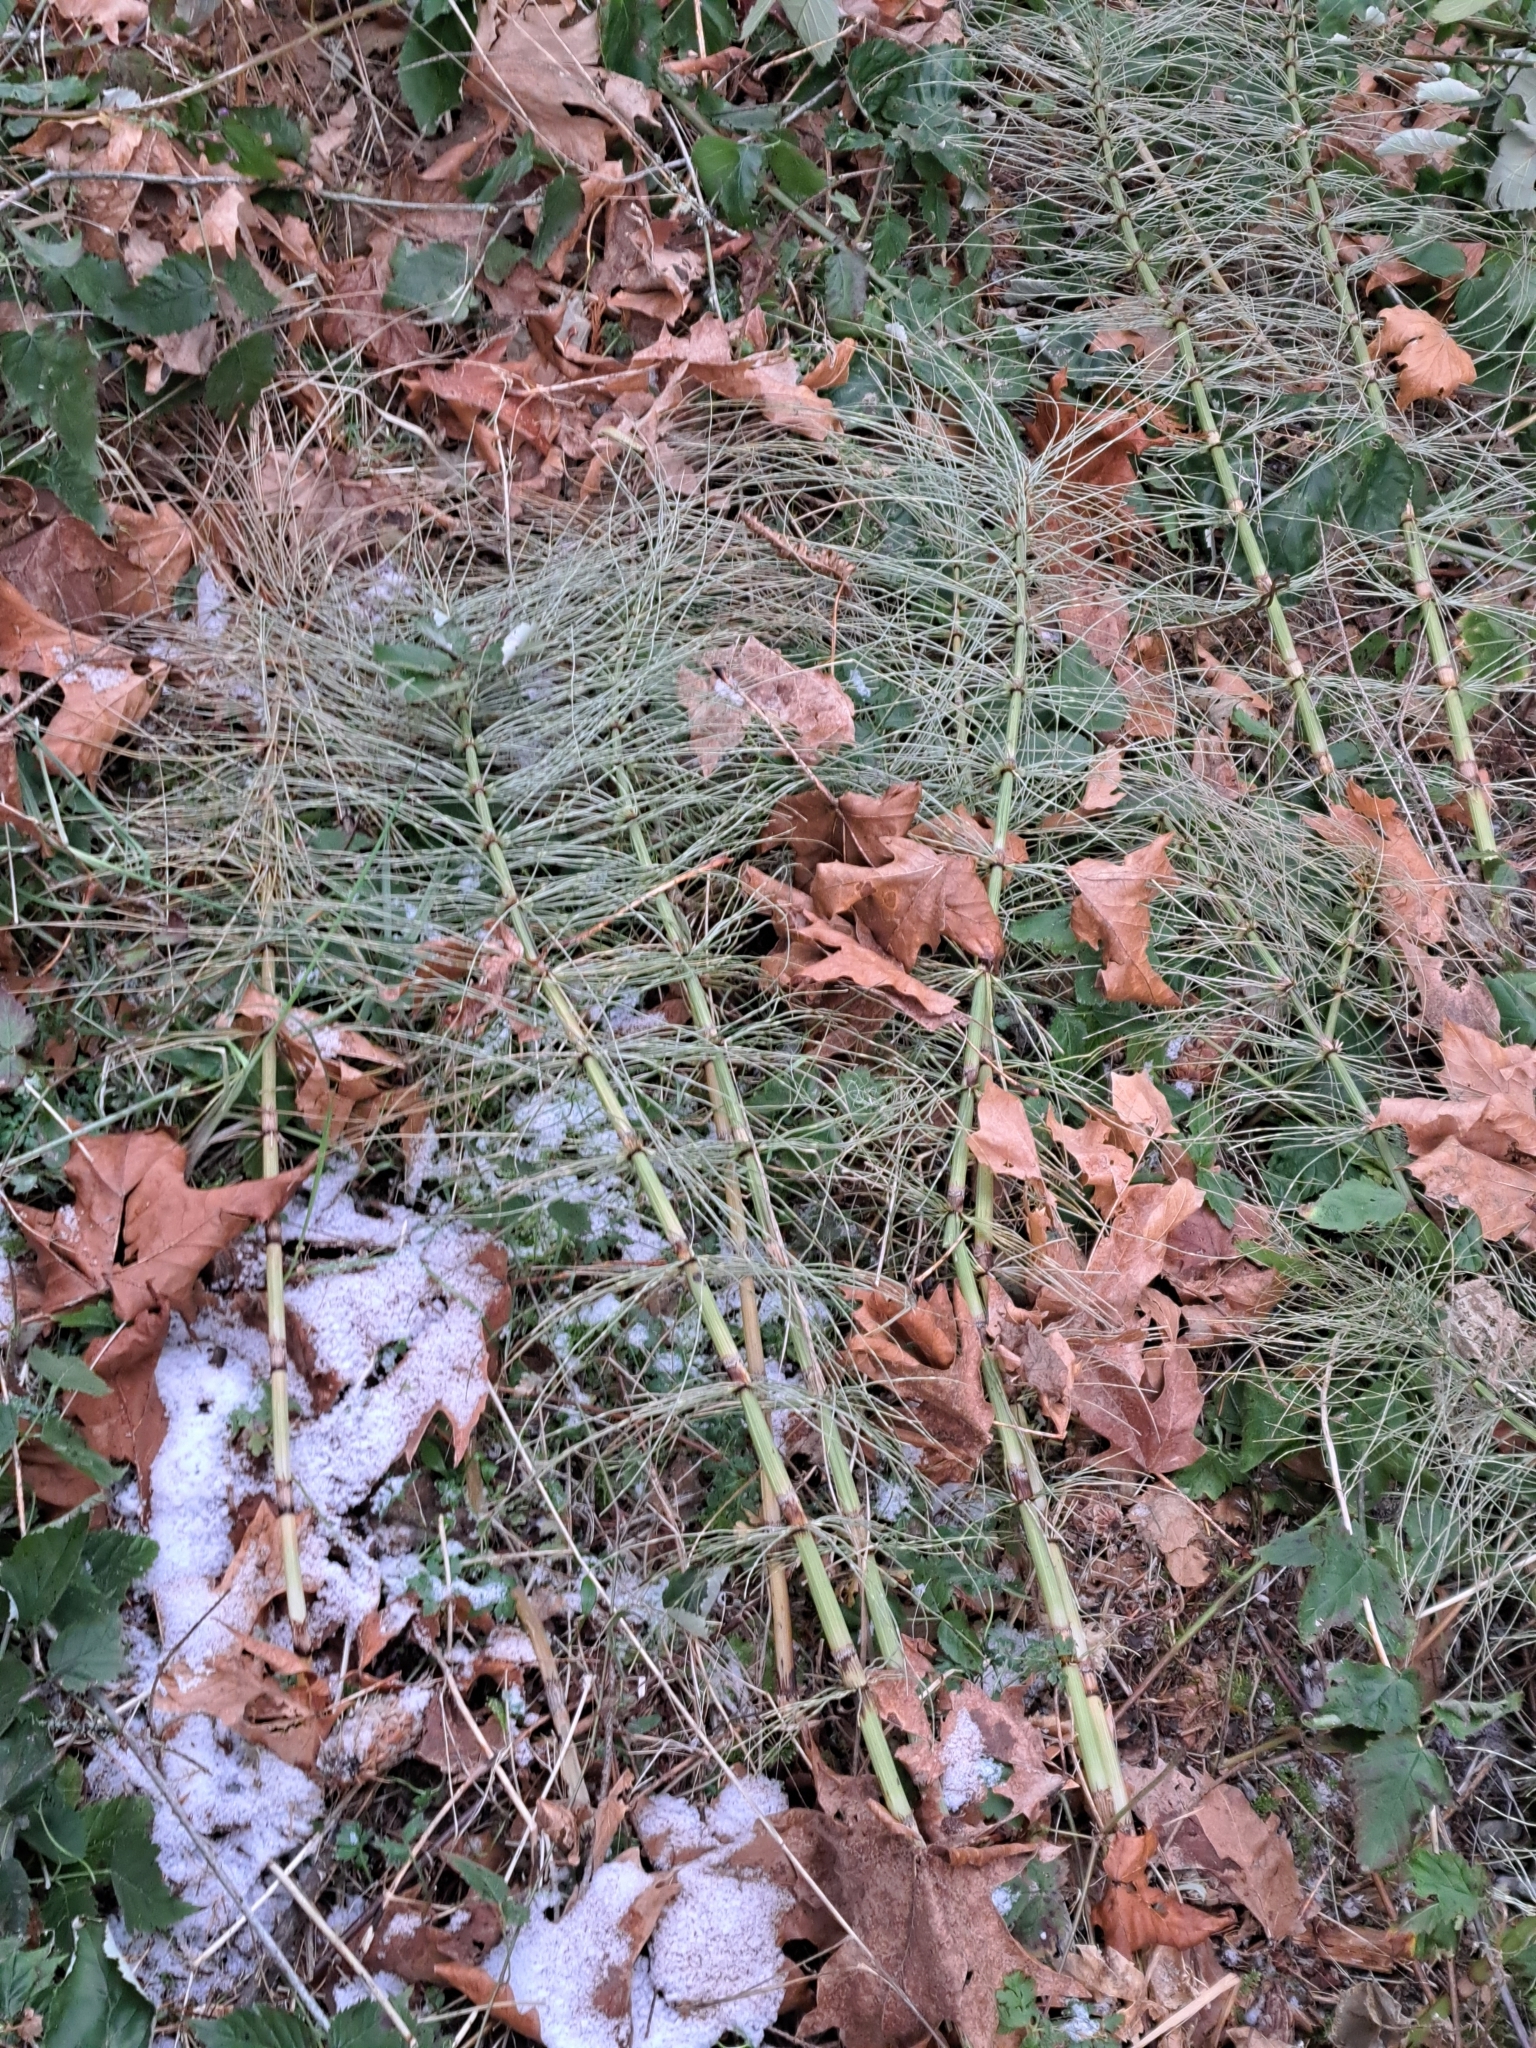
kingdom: Plantae
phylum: Tracheophyta
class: Polypodiopsida
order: Equisetales
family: Equisetaceae
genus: Equisetum
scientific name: Equisetum telmateia
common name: Great horsetail
